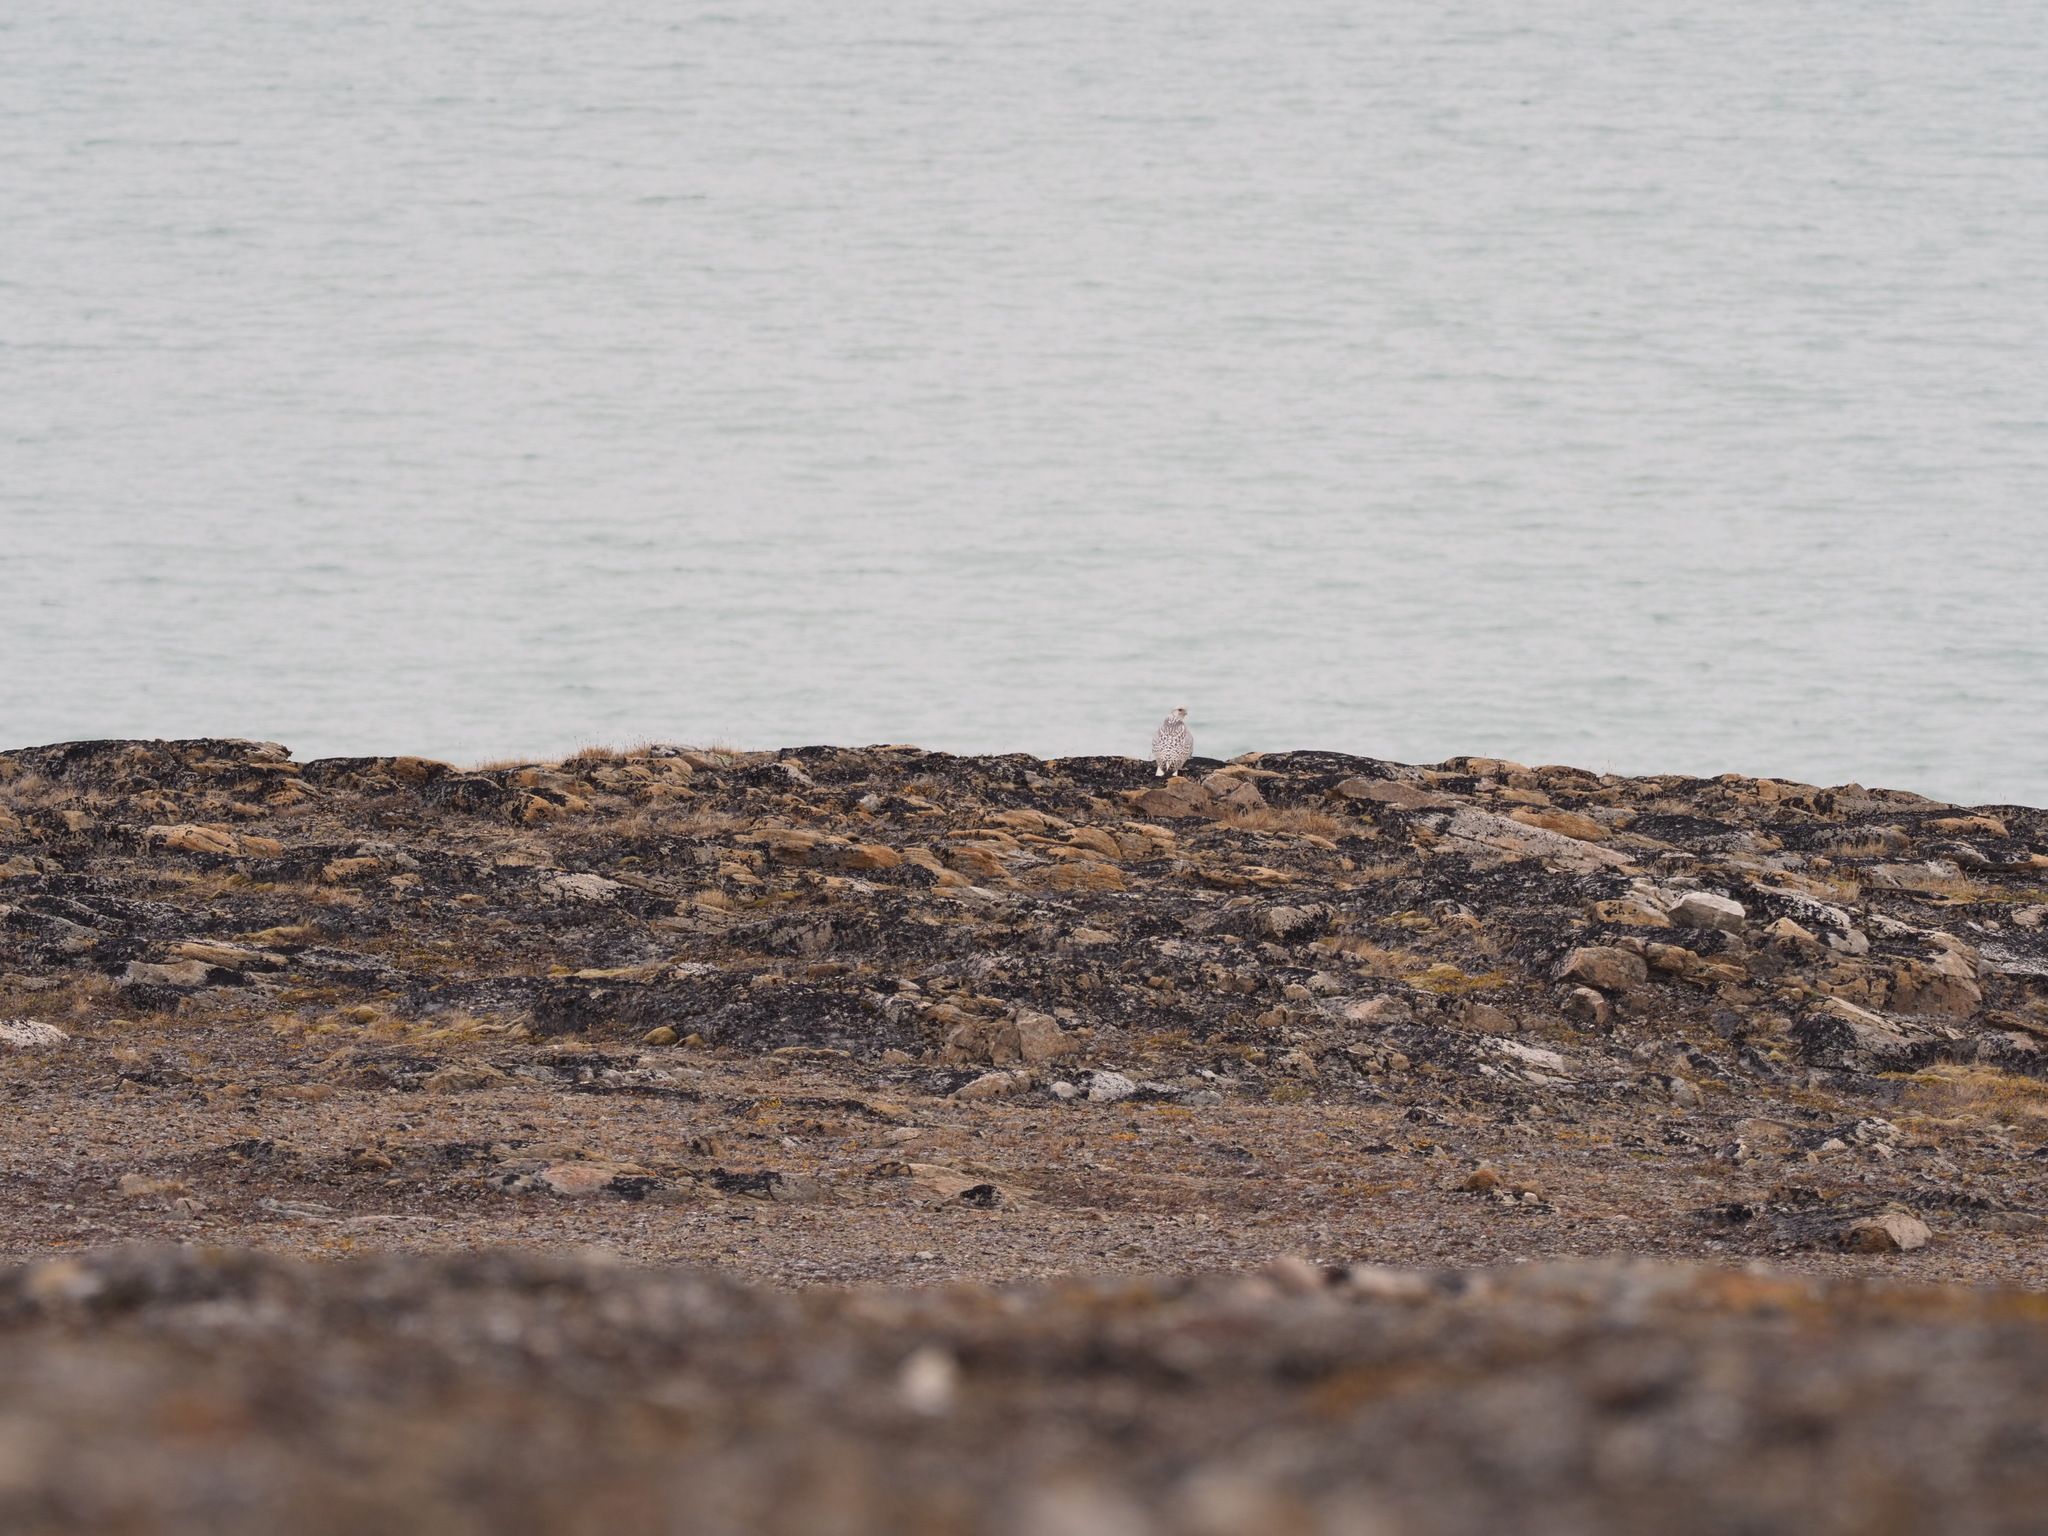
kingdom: Animalia
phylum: Chordata
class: Aves
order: Falconiformes
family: Falconidae
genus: Falco
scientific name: Falco rusticolus
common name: Gyrfalcon
